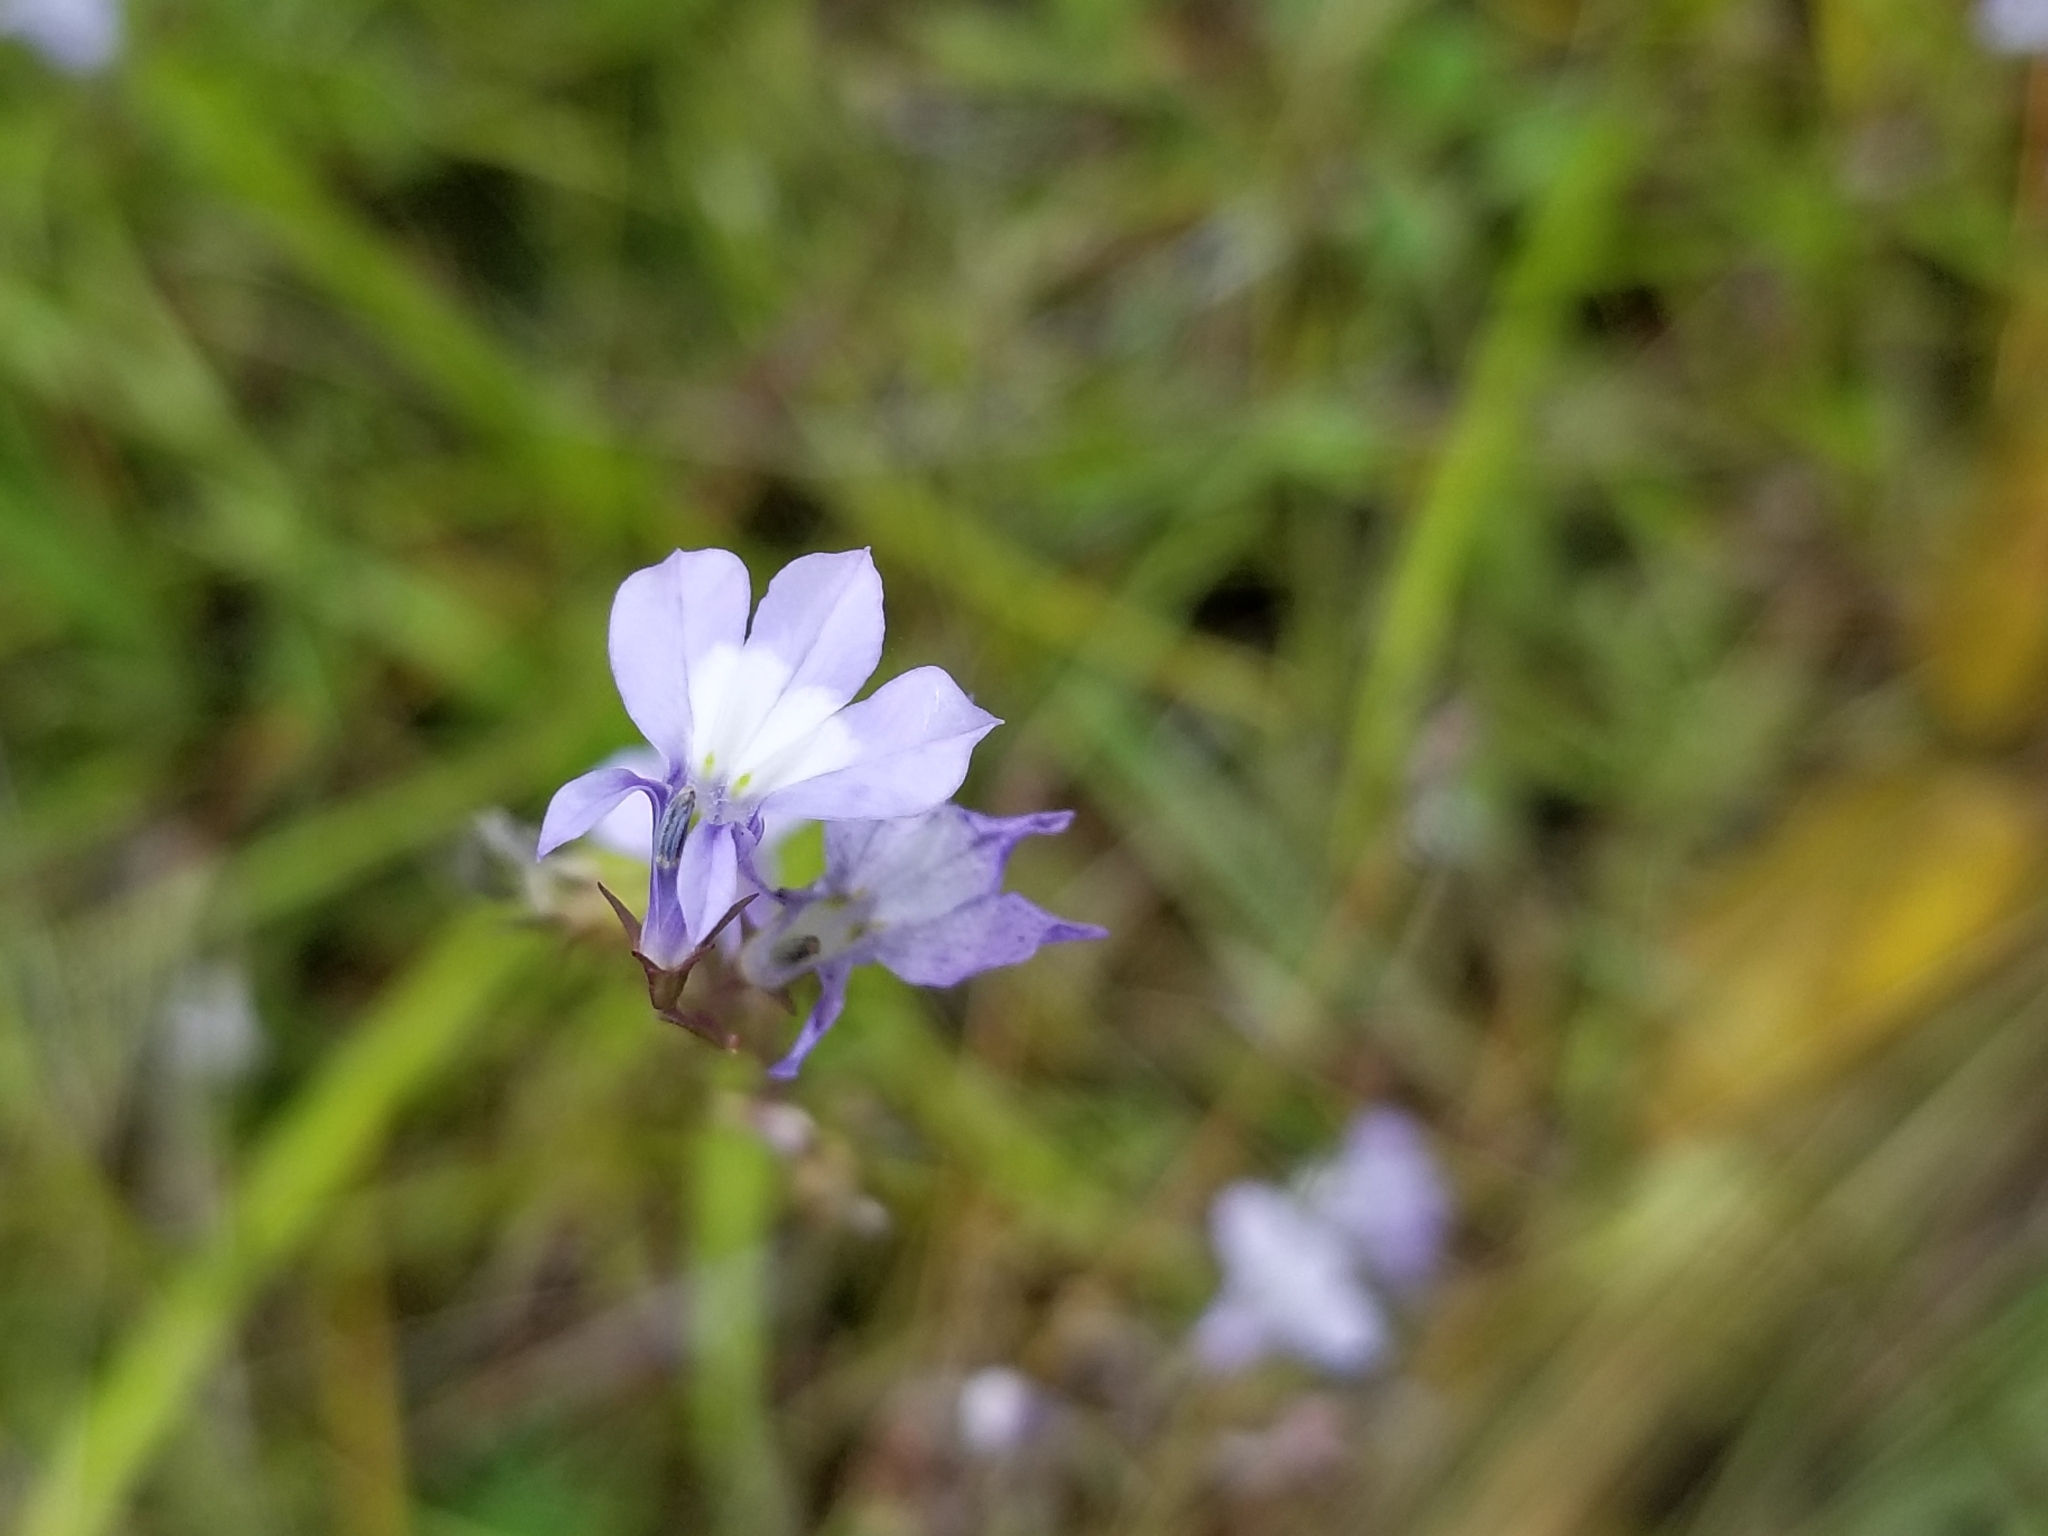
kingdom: Plantae
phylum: Tracheophyta
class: Magnoliopsida
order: Asterales
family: Campanulaceae
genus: Lobelia
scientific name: Lobelia kalmii
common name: Kalm's lobelia
